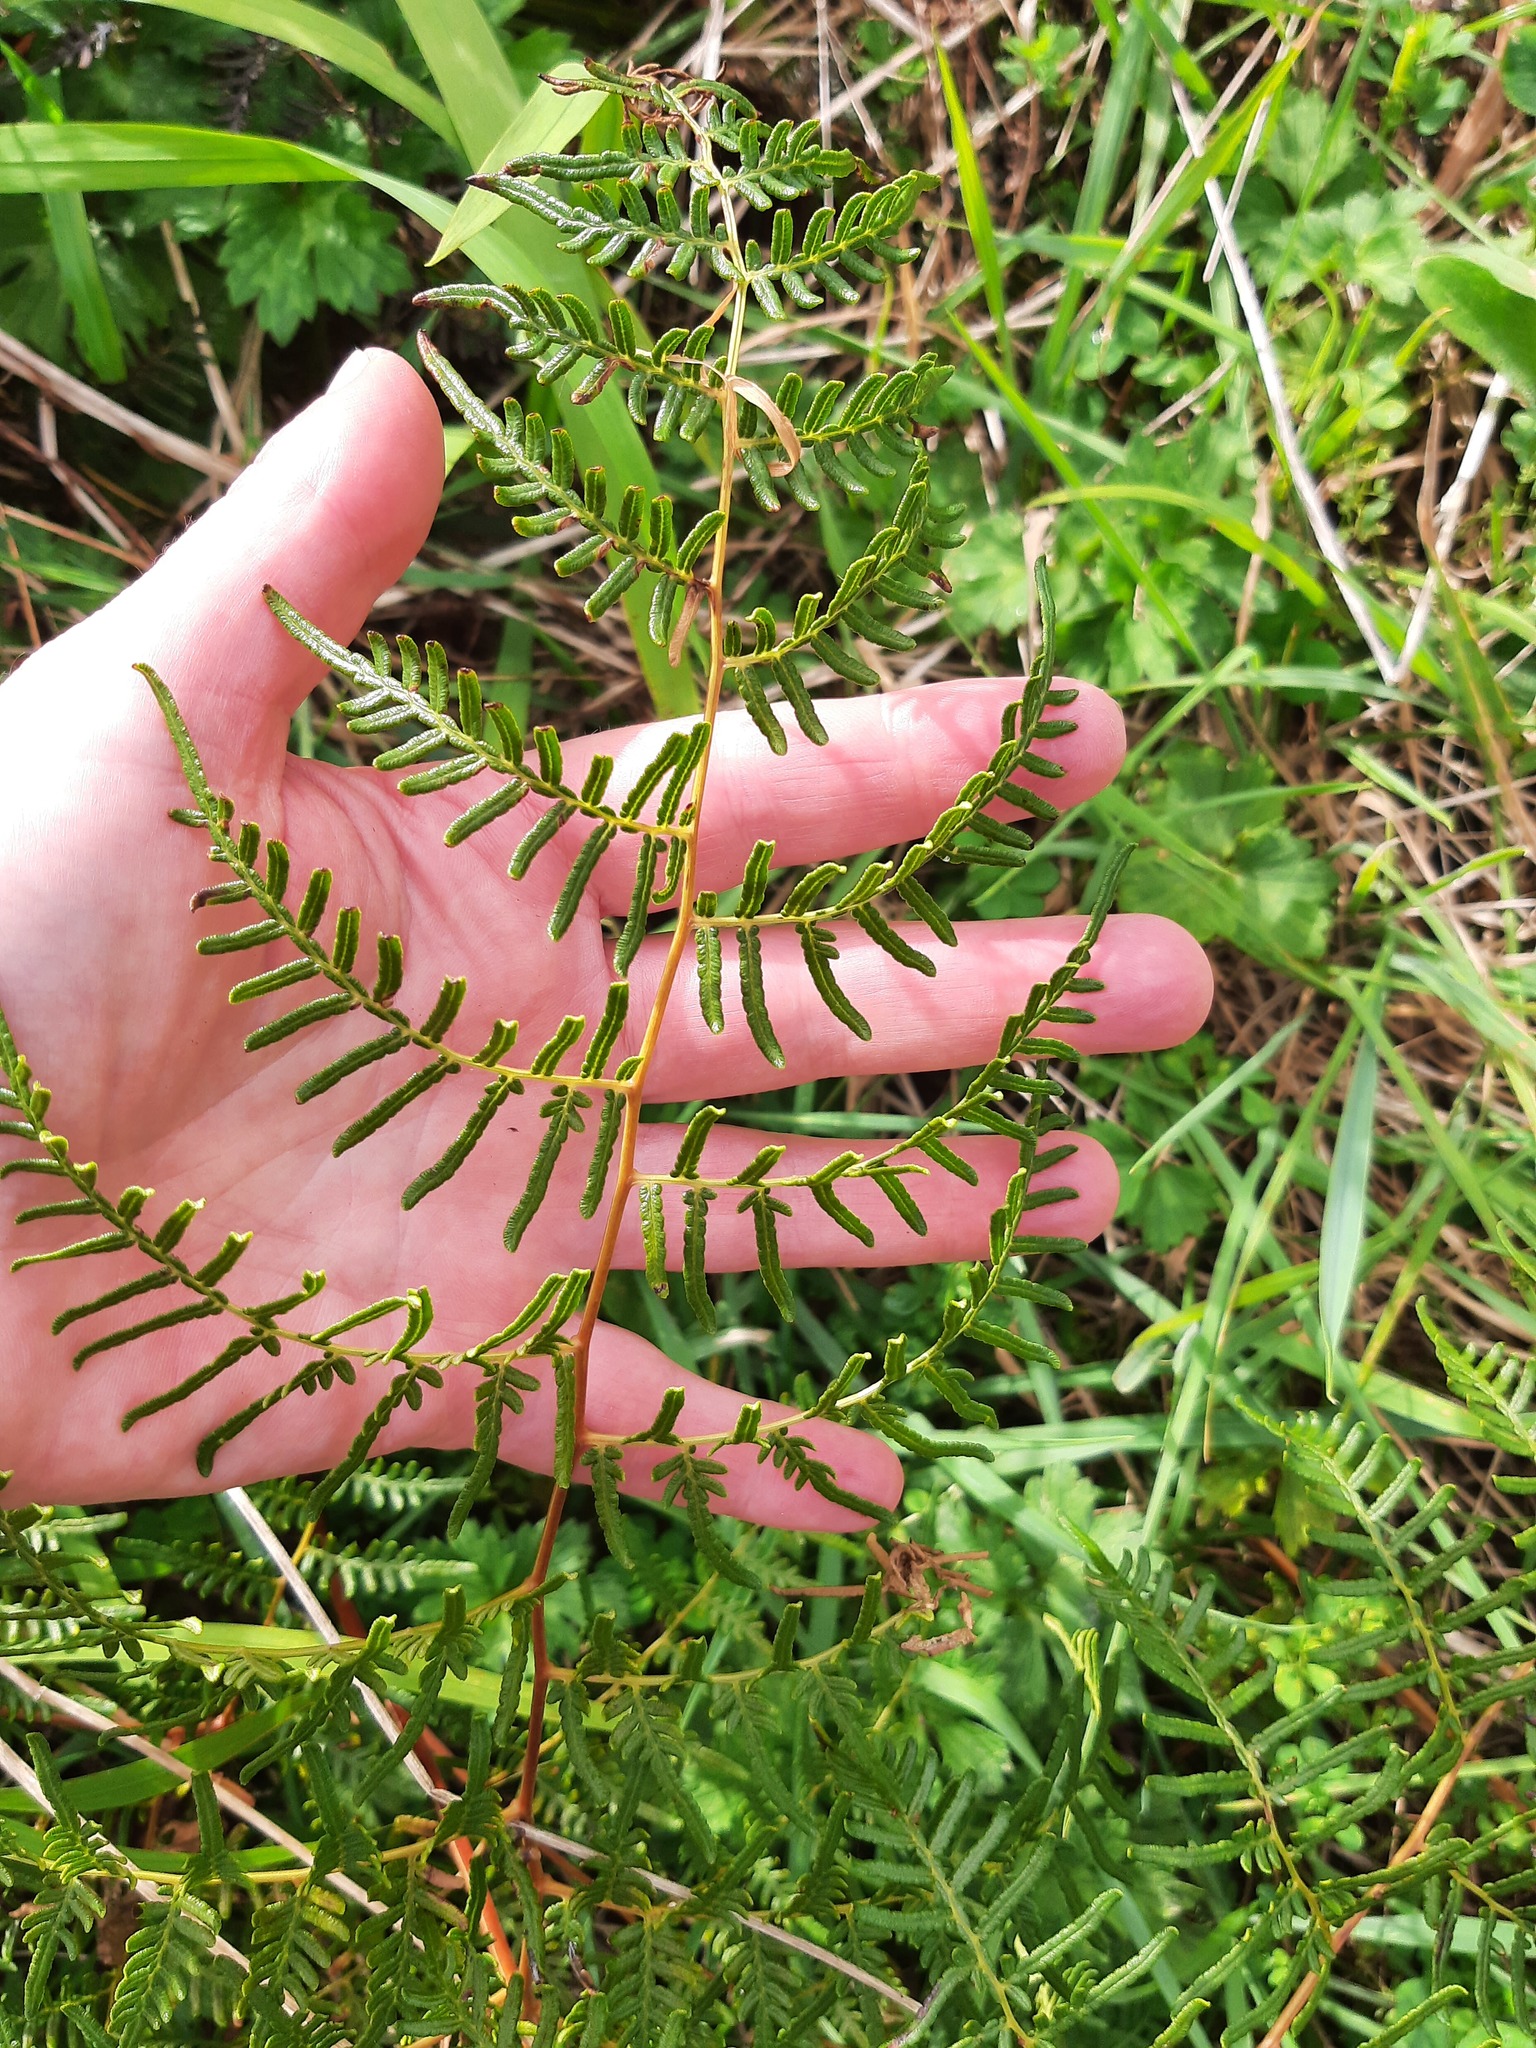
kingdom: Plantae
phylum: Tracheophyta
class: Polypodiopsida
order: Polypodiales
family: Dennstaedtiaceae
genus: Pteridium
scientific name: Pteridium esculentum
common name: Bracken fern
